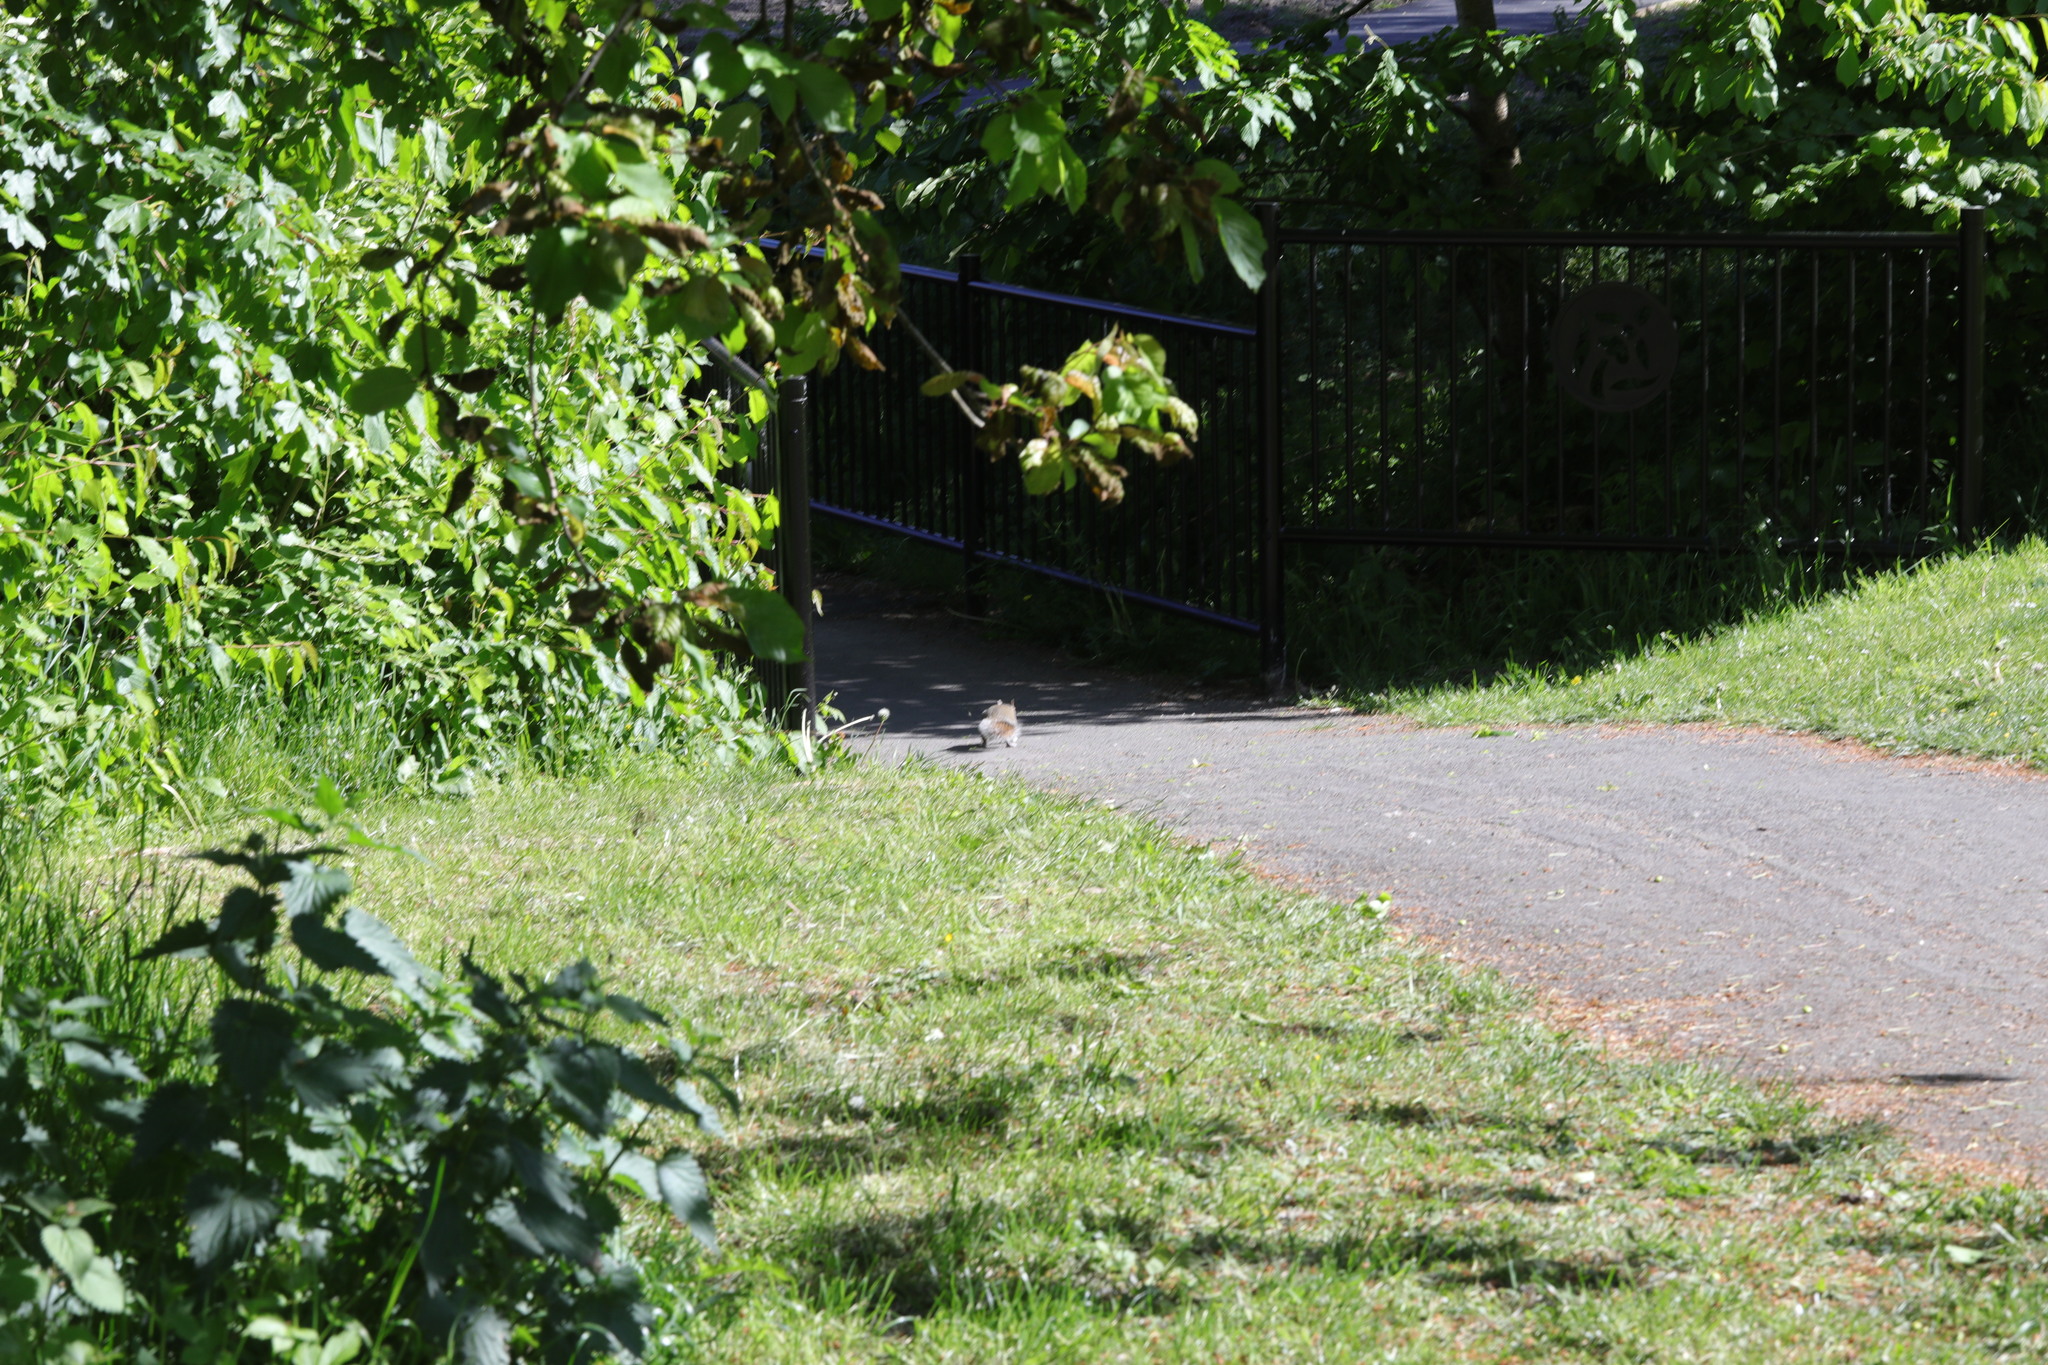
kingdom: Animalia
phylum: Chordata
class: Mammalia
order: Rodentia
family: Sciuridae
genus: Sciurus
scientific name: Sciurus carolinensis
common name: Eastern gray squirrel
